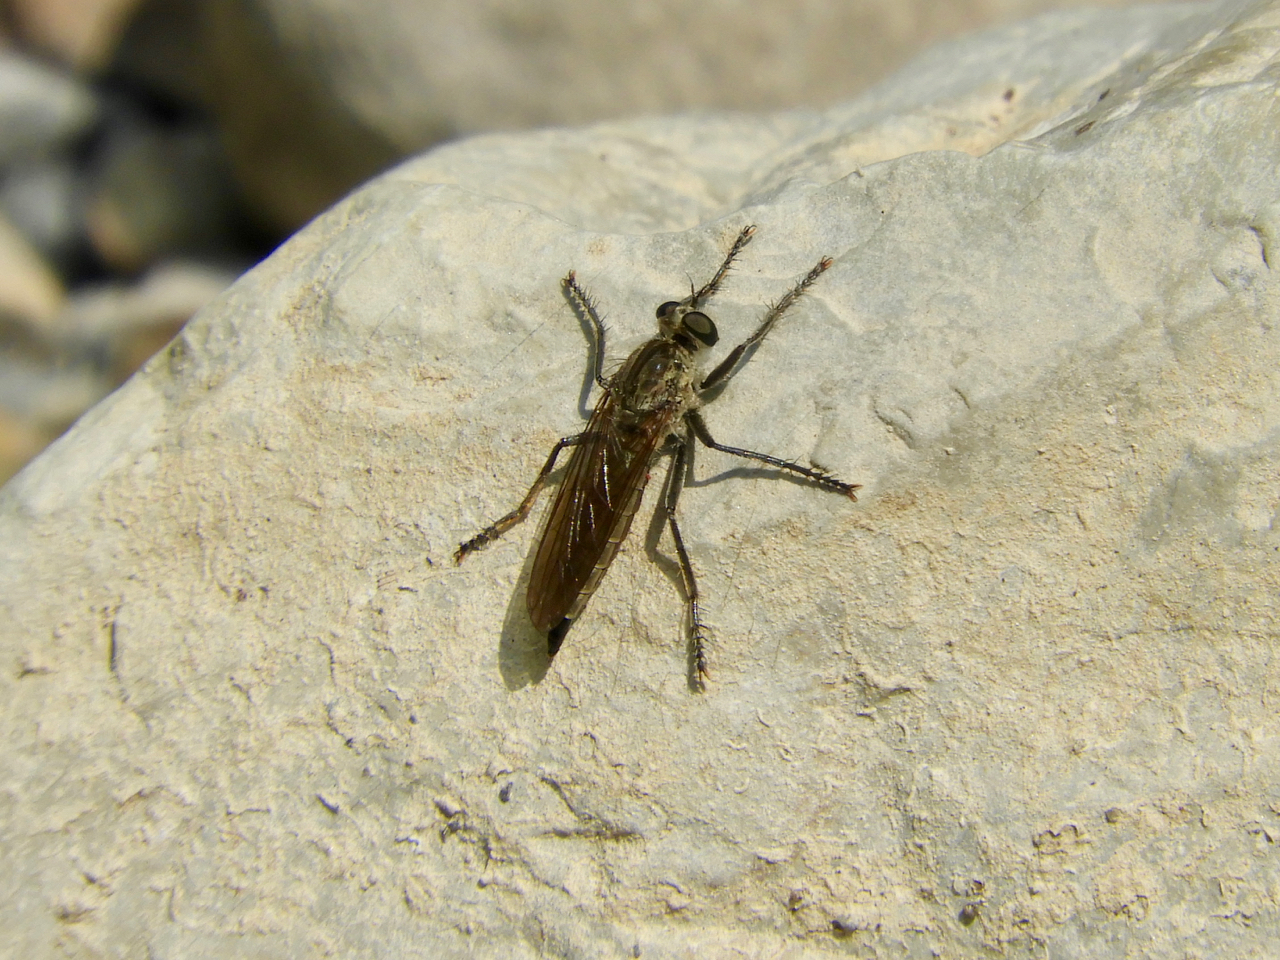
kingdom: Animalia
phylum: Arthropoda
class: Insecta
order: Diptera
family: Asilidae
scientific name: Asilidae
